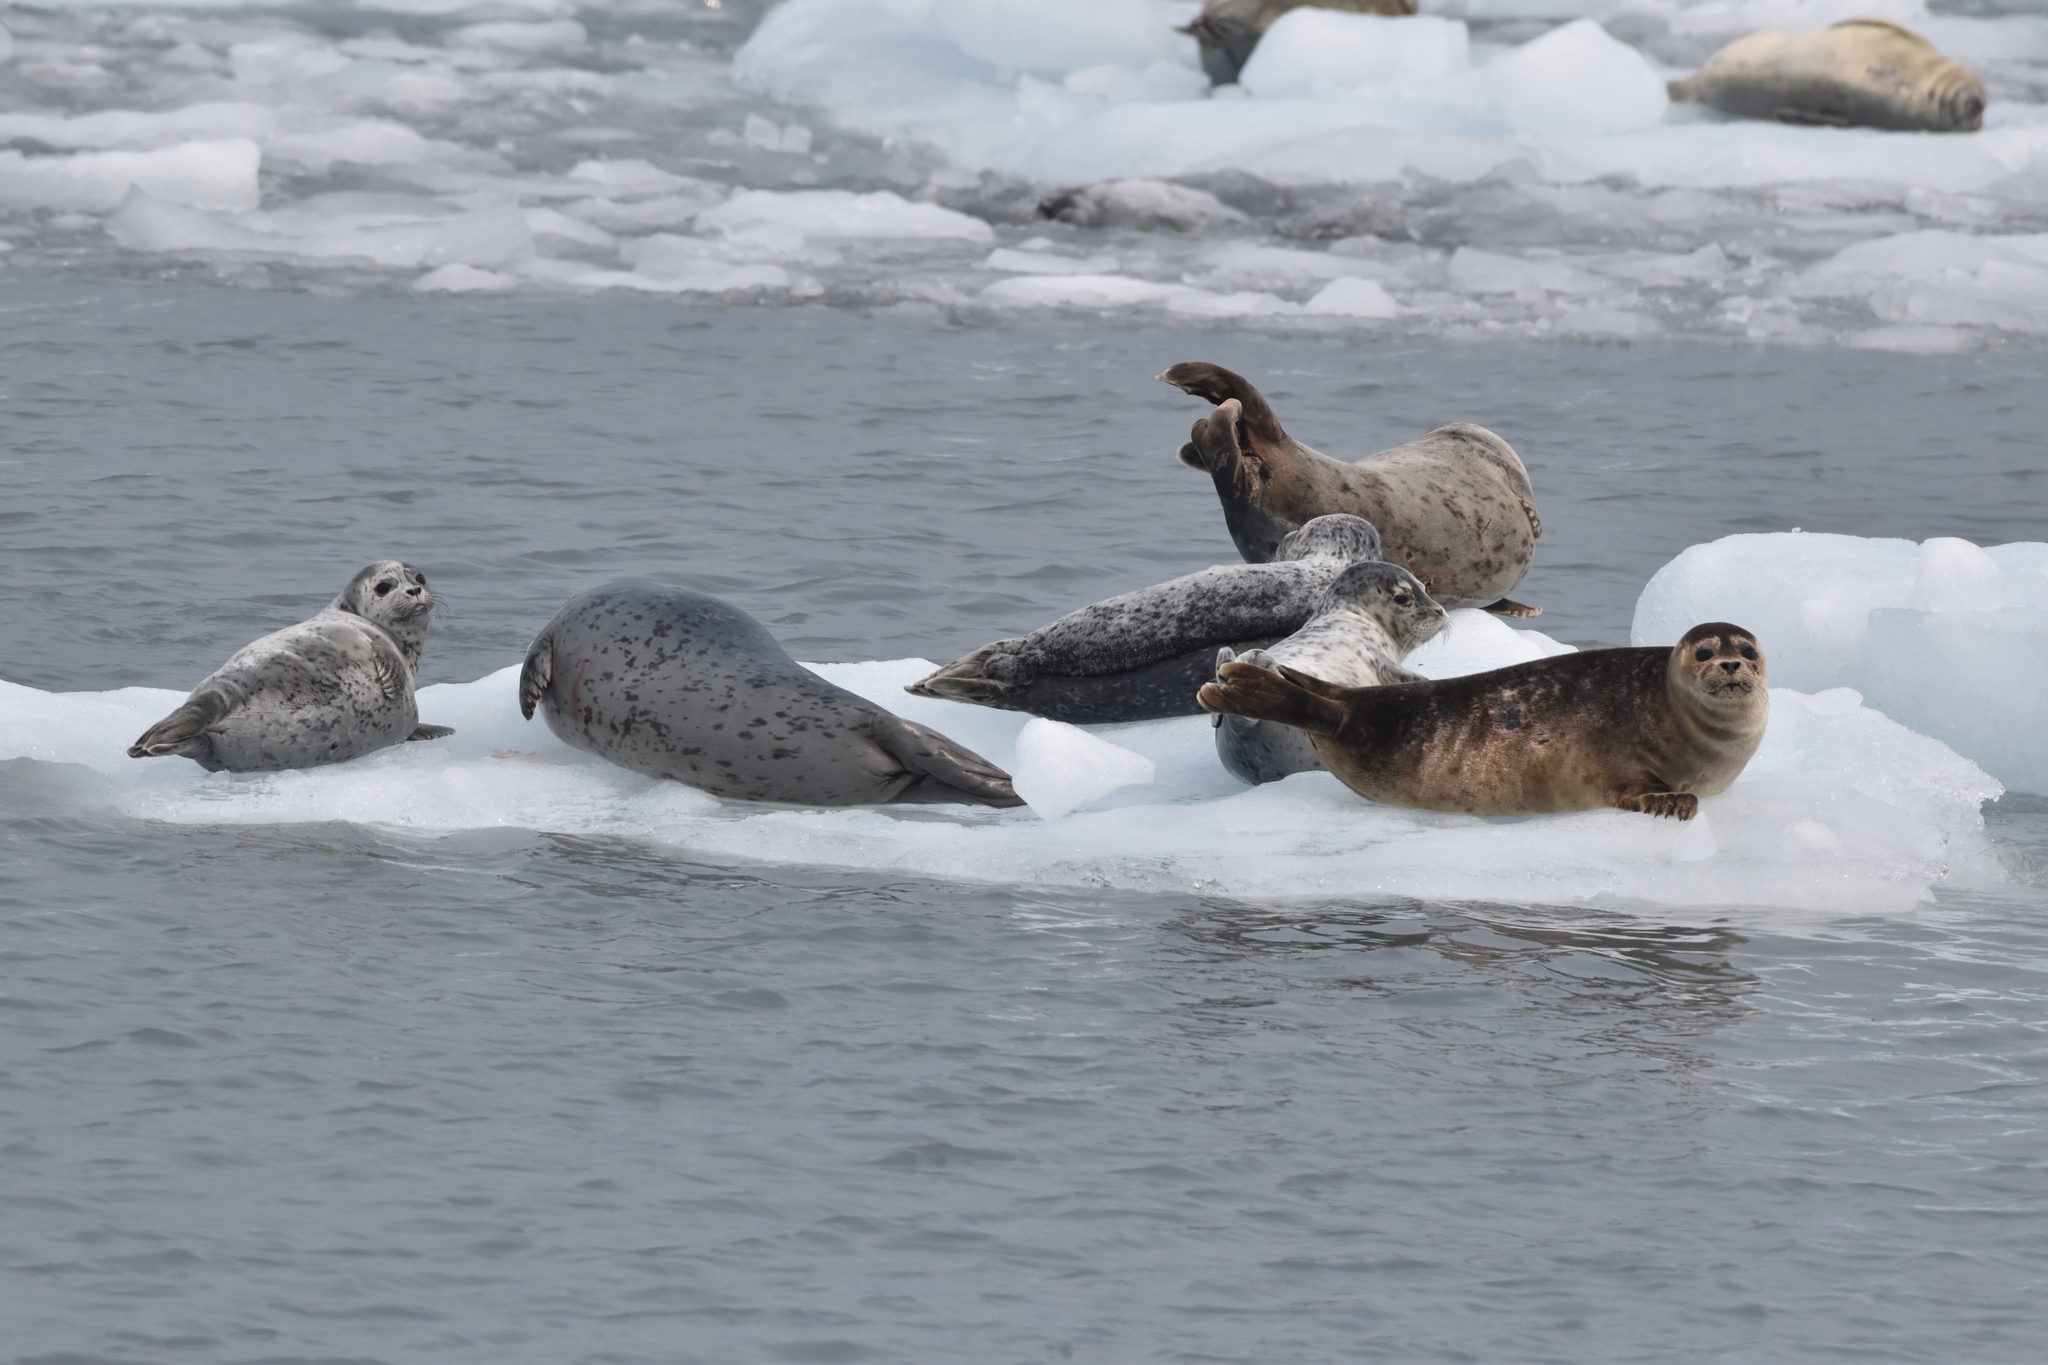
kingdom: Animalia
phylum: Chordata
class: Mammalia
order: Carnivora
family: Phocidae
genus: Phoca
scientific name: Phoca vitulina
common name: Harbor seal
